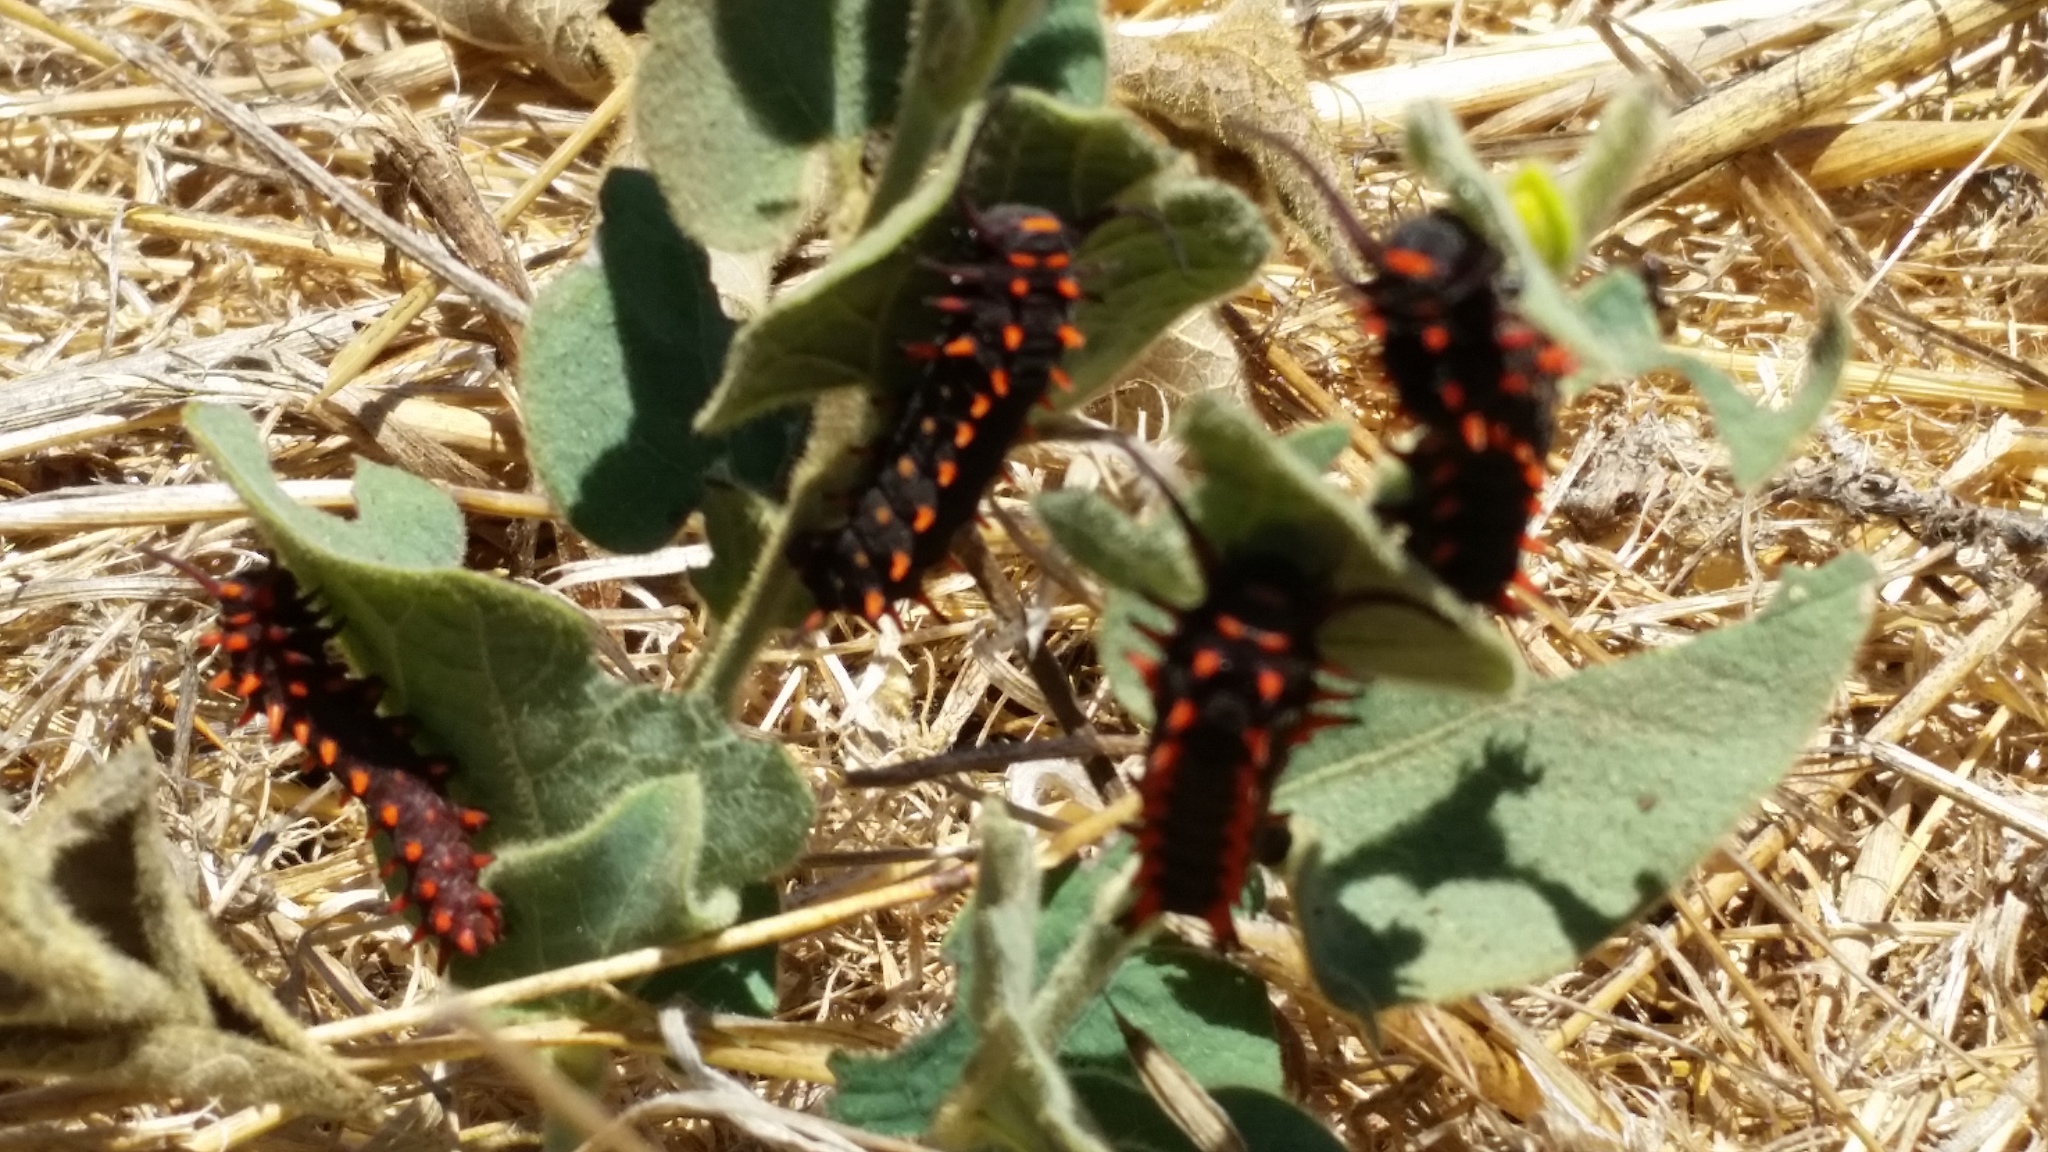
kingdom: Animalia
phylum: Arthropoda
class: Insecta
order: Lepidoptera
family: Papilionidae
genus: Battus
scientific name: Battus philenor
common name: Pipevine swallowtail
